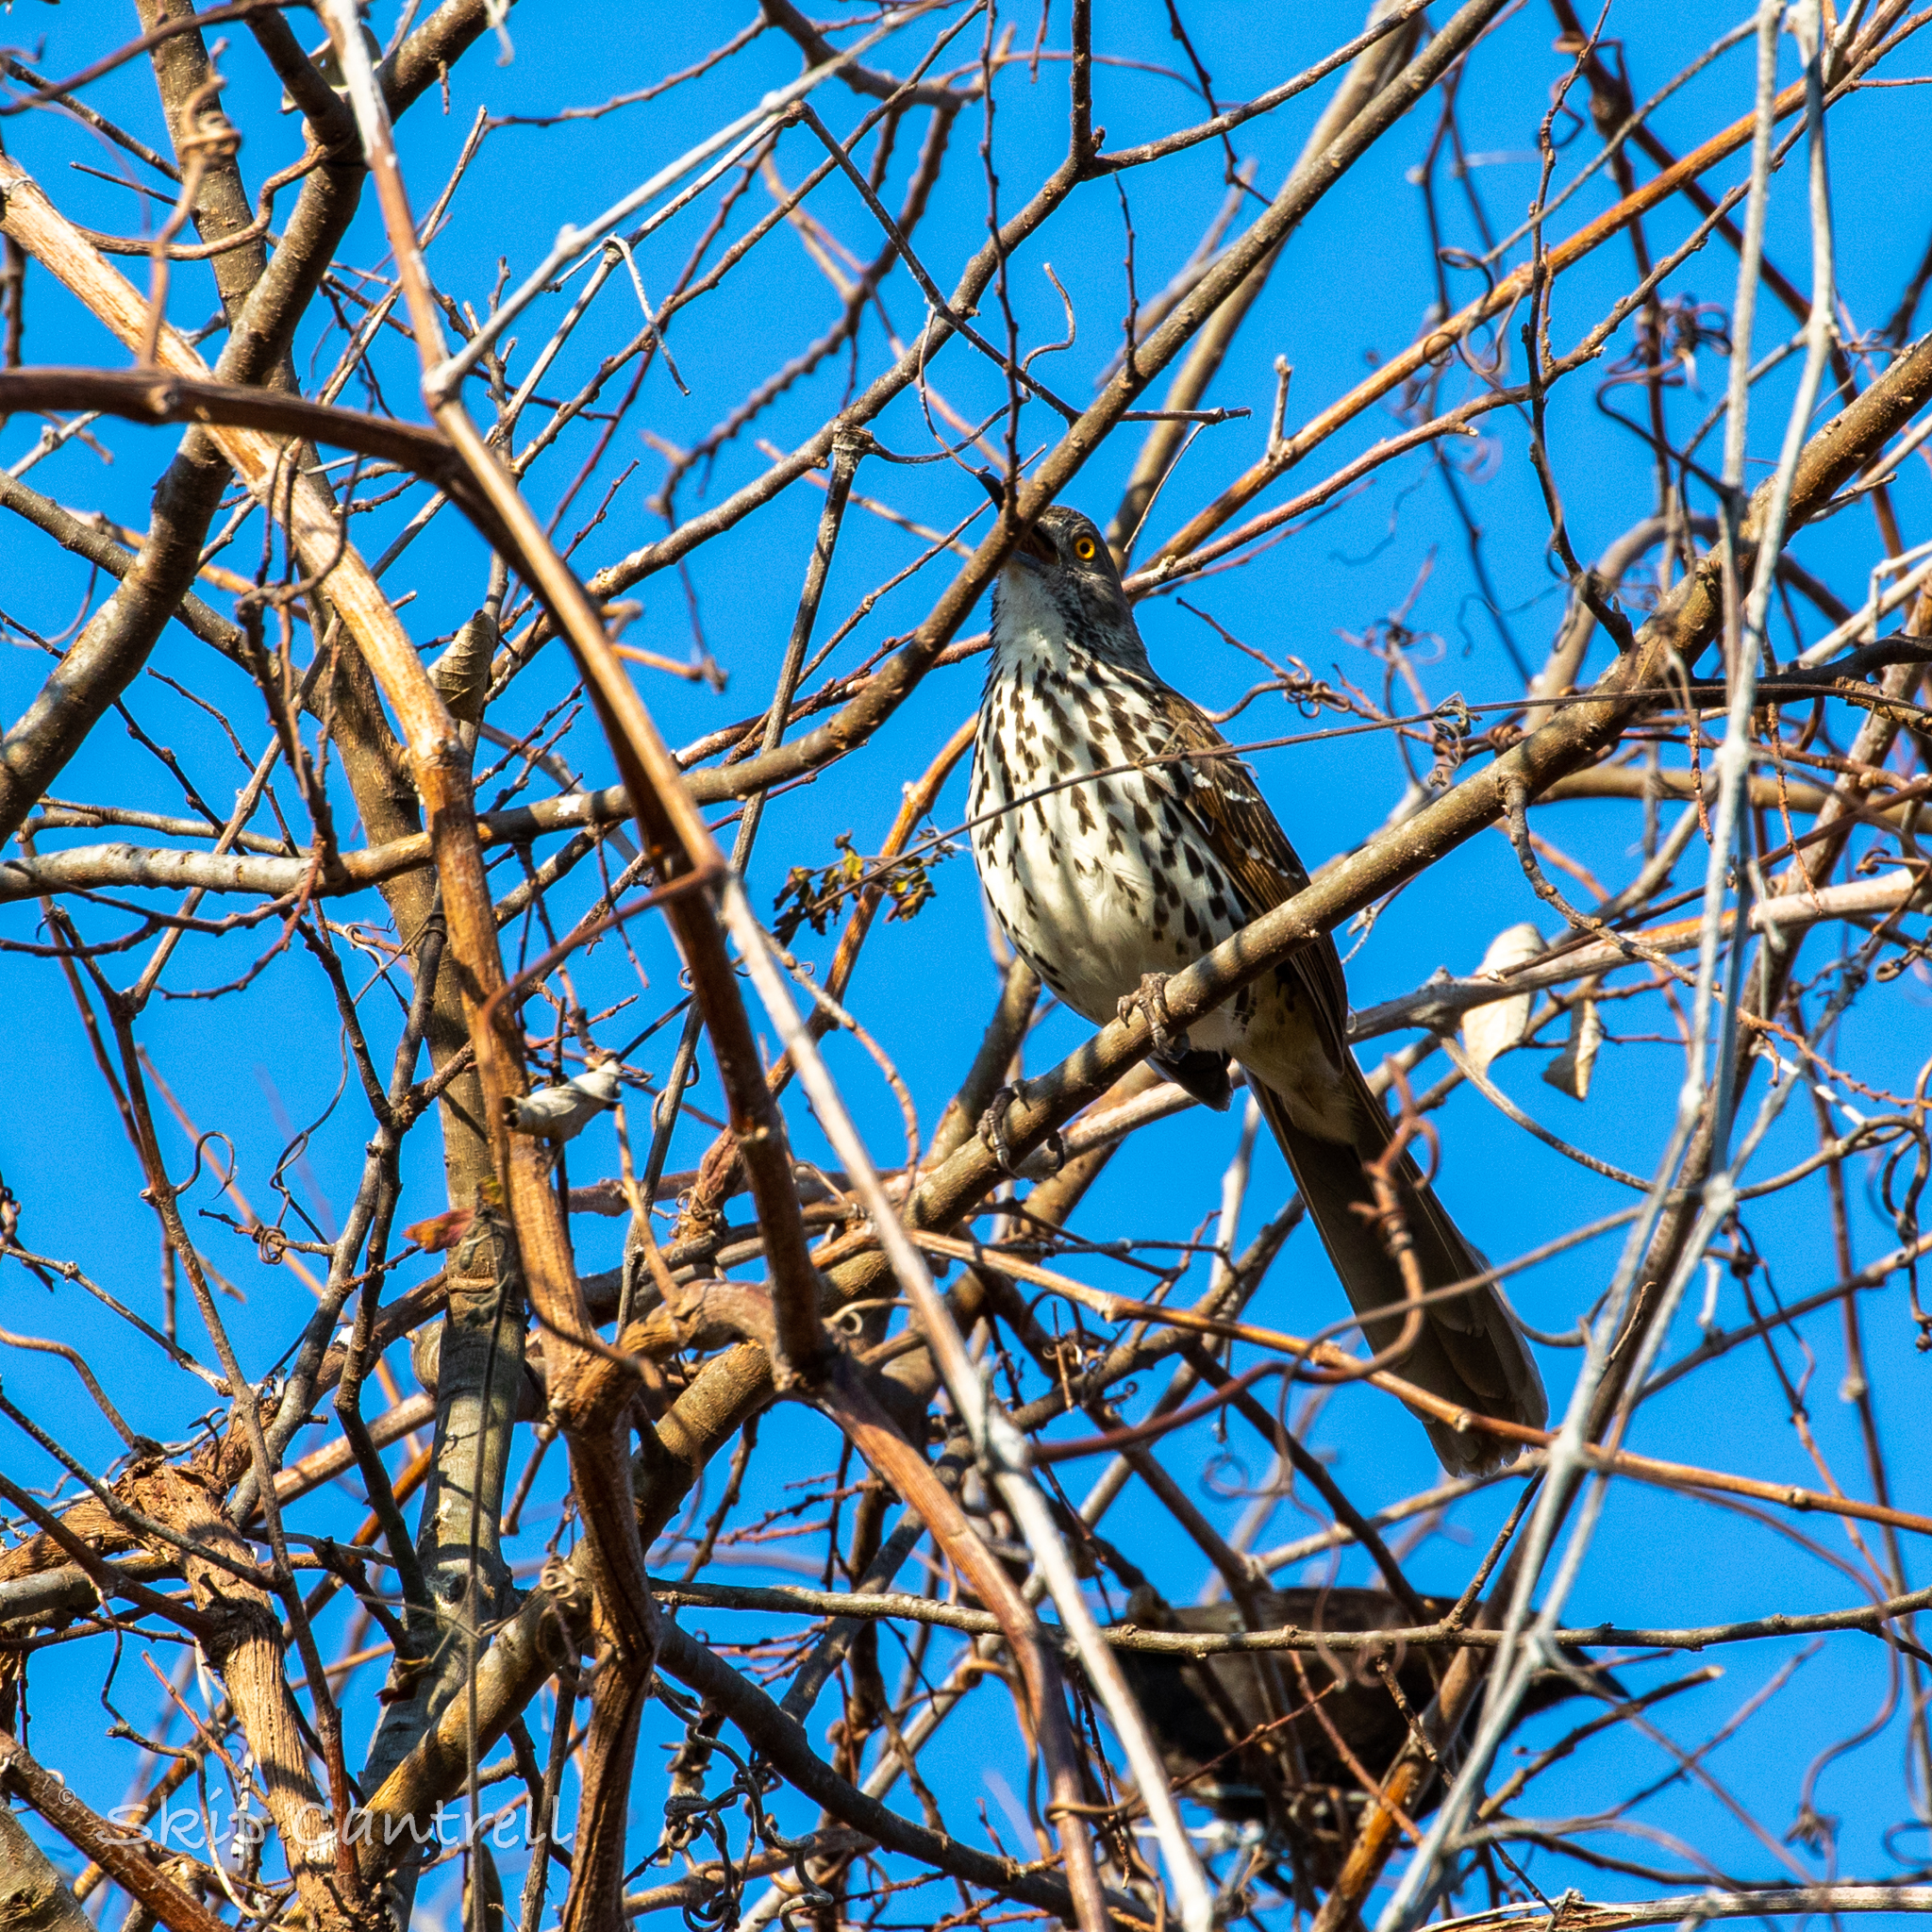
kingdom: Animalia
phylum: Chordata
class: Aves
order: Passeriformes
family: Mimidae
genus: Toxostoma
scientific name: Toxostoma longirostre
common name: Long-billed thrasher
